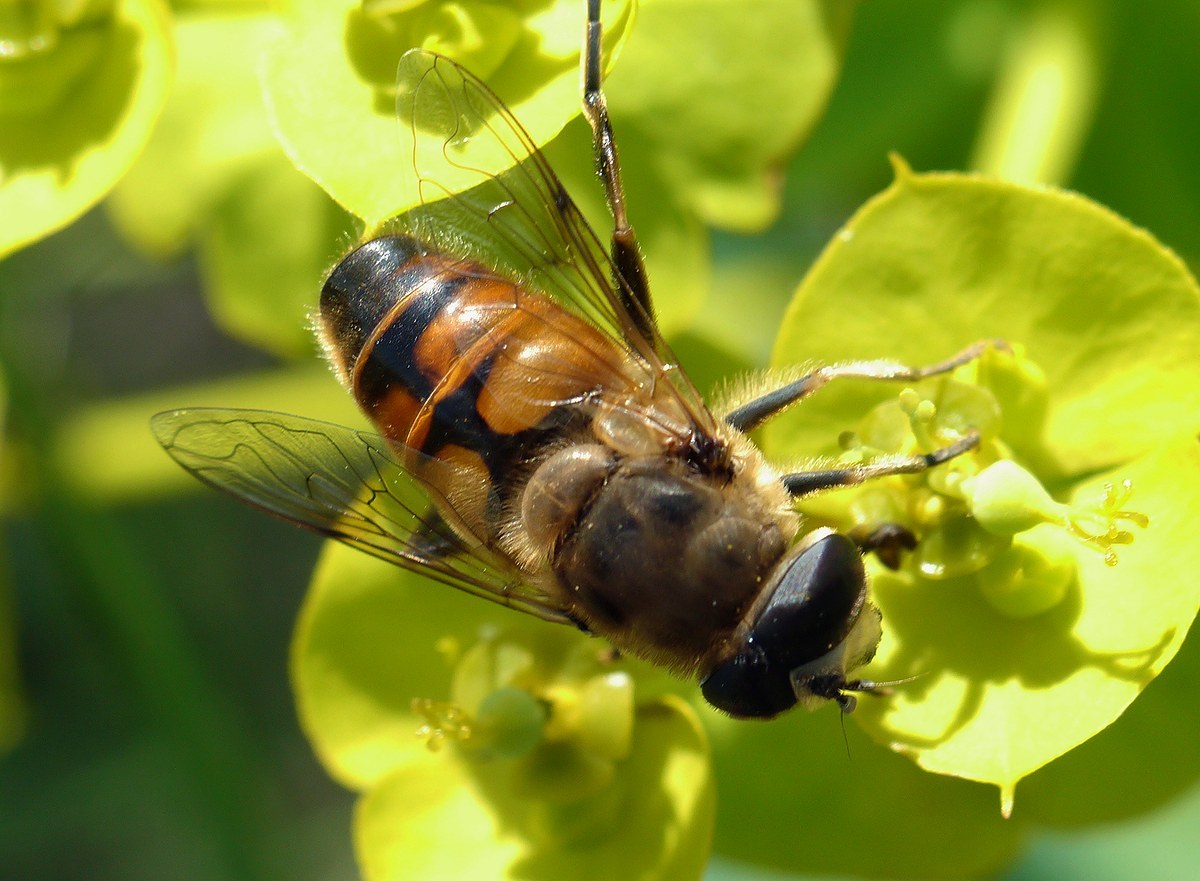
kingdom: Animalia
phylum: Arthropoda
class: Insecta
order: Diptera
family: Syrphidae
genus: Eristalis
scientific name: Eristalis tenax
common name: Drone fly
